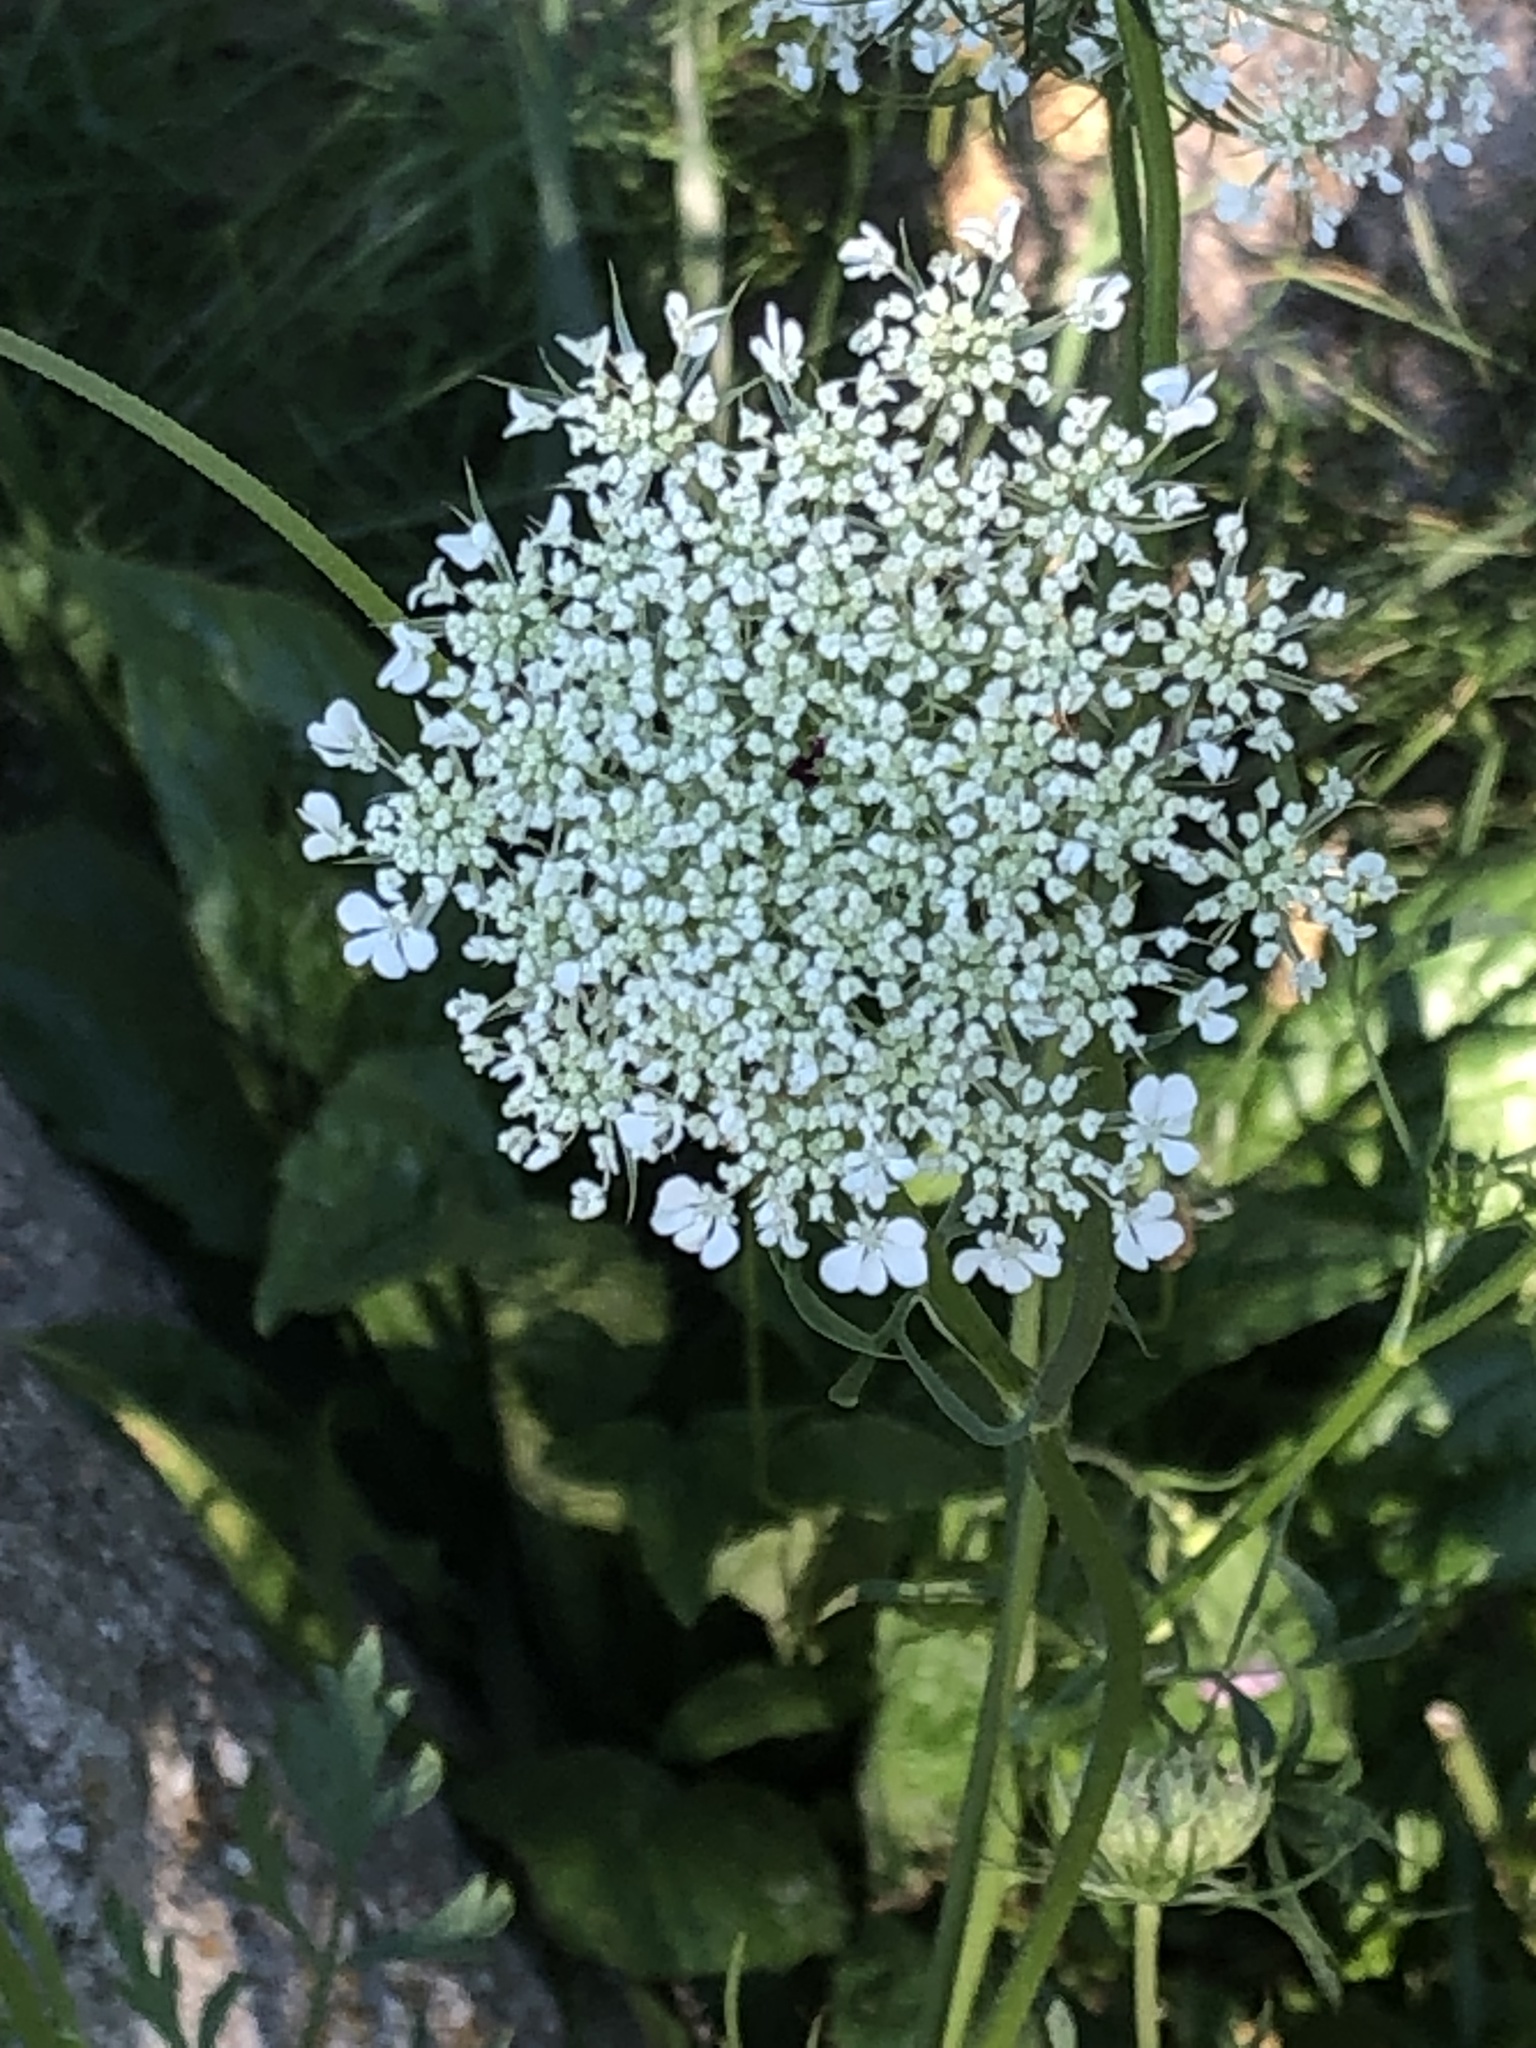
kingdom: Plantae
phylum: Tracheophyta
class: Magnoliopsida
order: Apiales
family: Apiaceae
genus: Daucus
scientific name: Daucus carota
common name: Wild carrot
